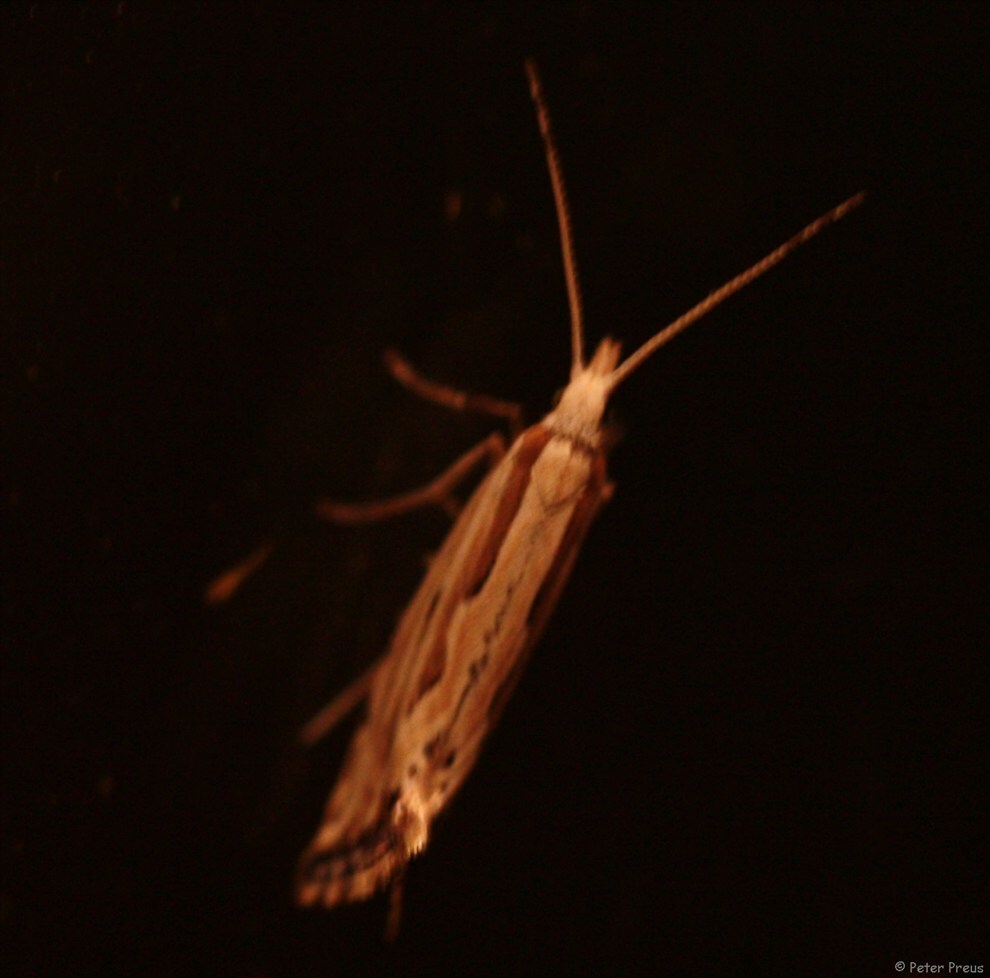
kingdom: Animalia
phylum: Arthropoda
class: Insecta
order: Lepidoptera
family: Plutellidae
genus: Plutella
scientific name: Plutella porrectella
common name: Dame's rocket moth
